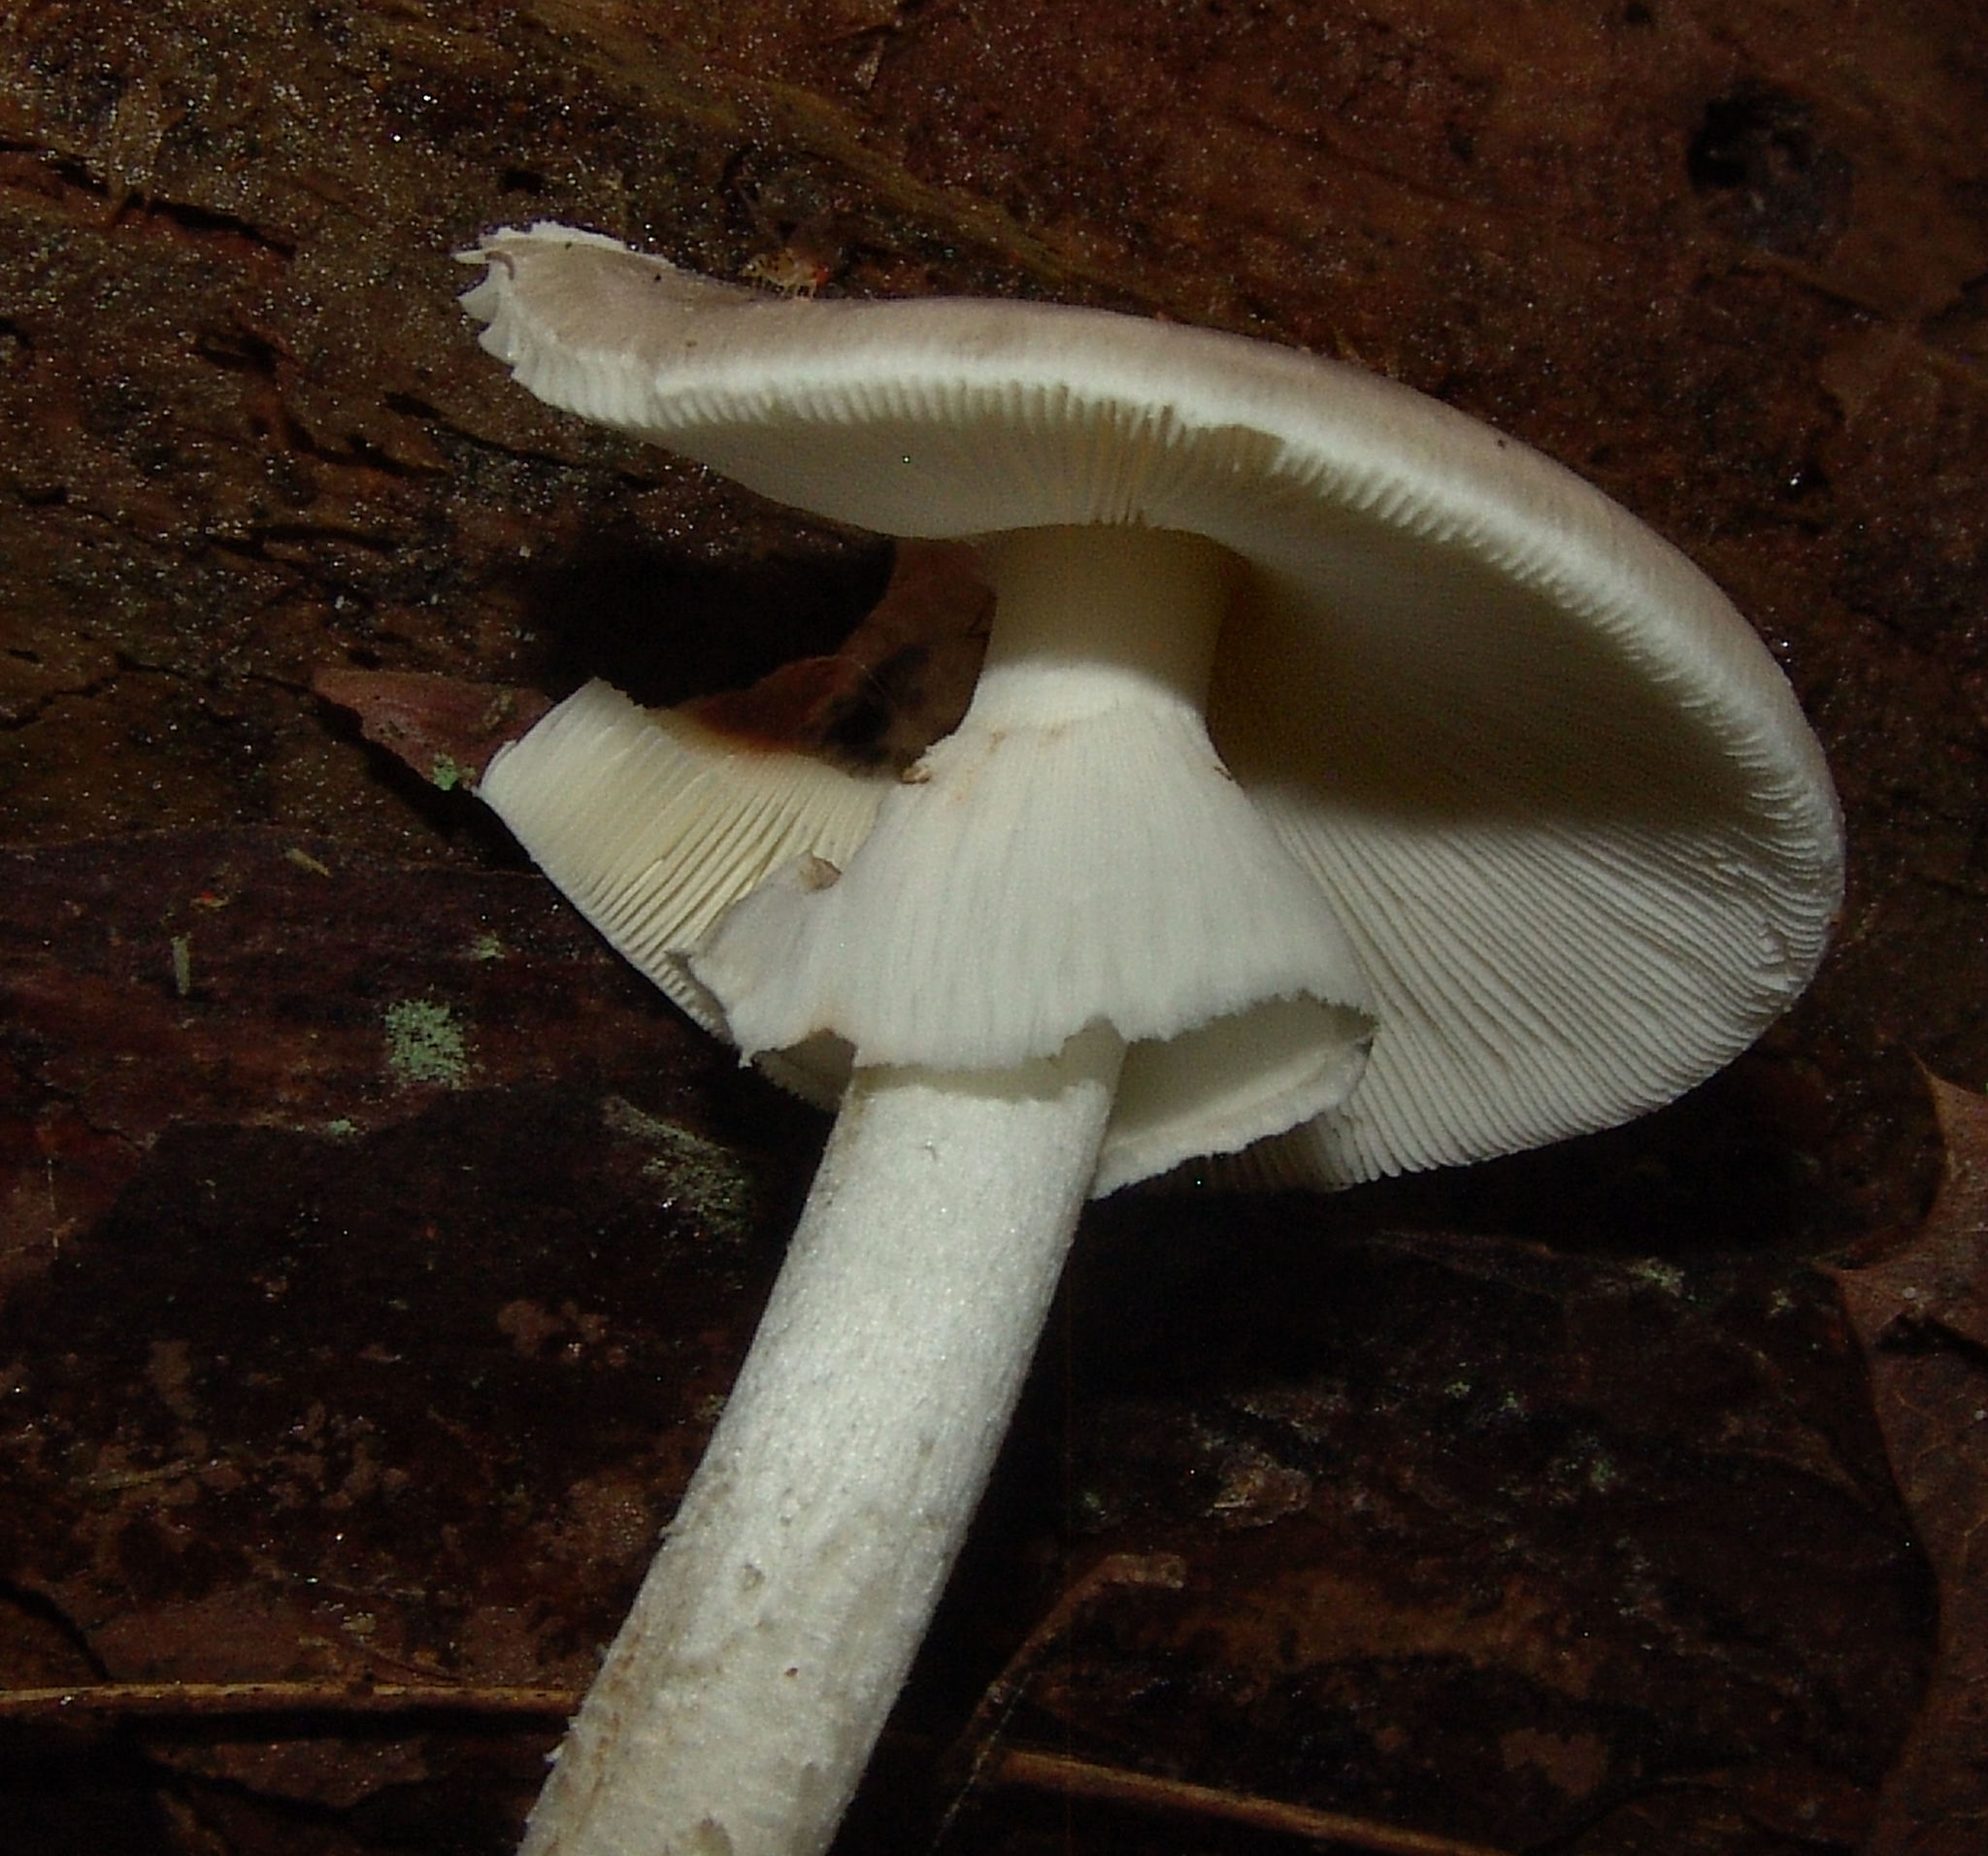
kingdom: Fungi
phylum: Basidiomycota
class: Agaricomycetes
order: Agaricales
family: Amanitaceae
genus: Amanita
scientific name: Amanita submaculata
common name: Ball gown amanita
